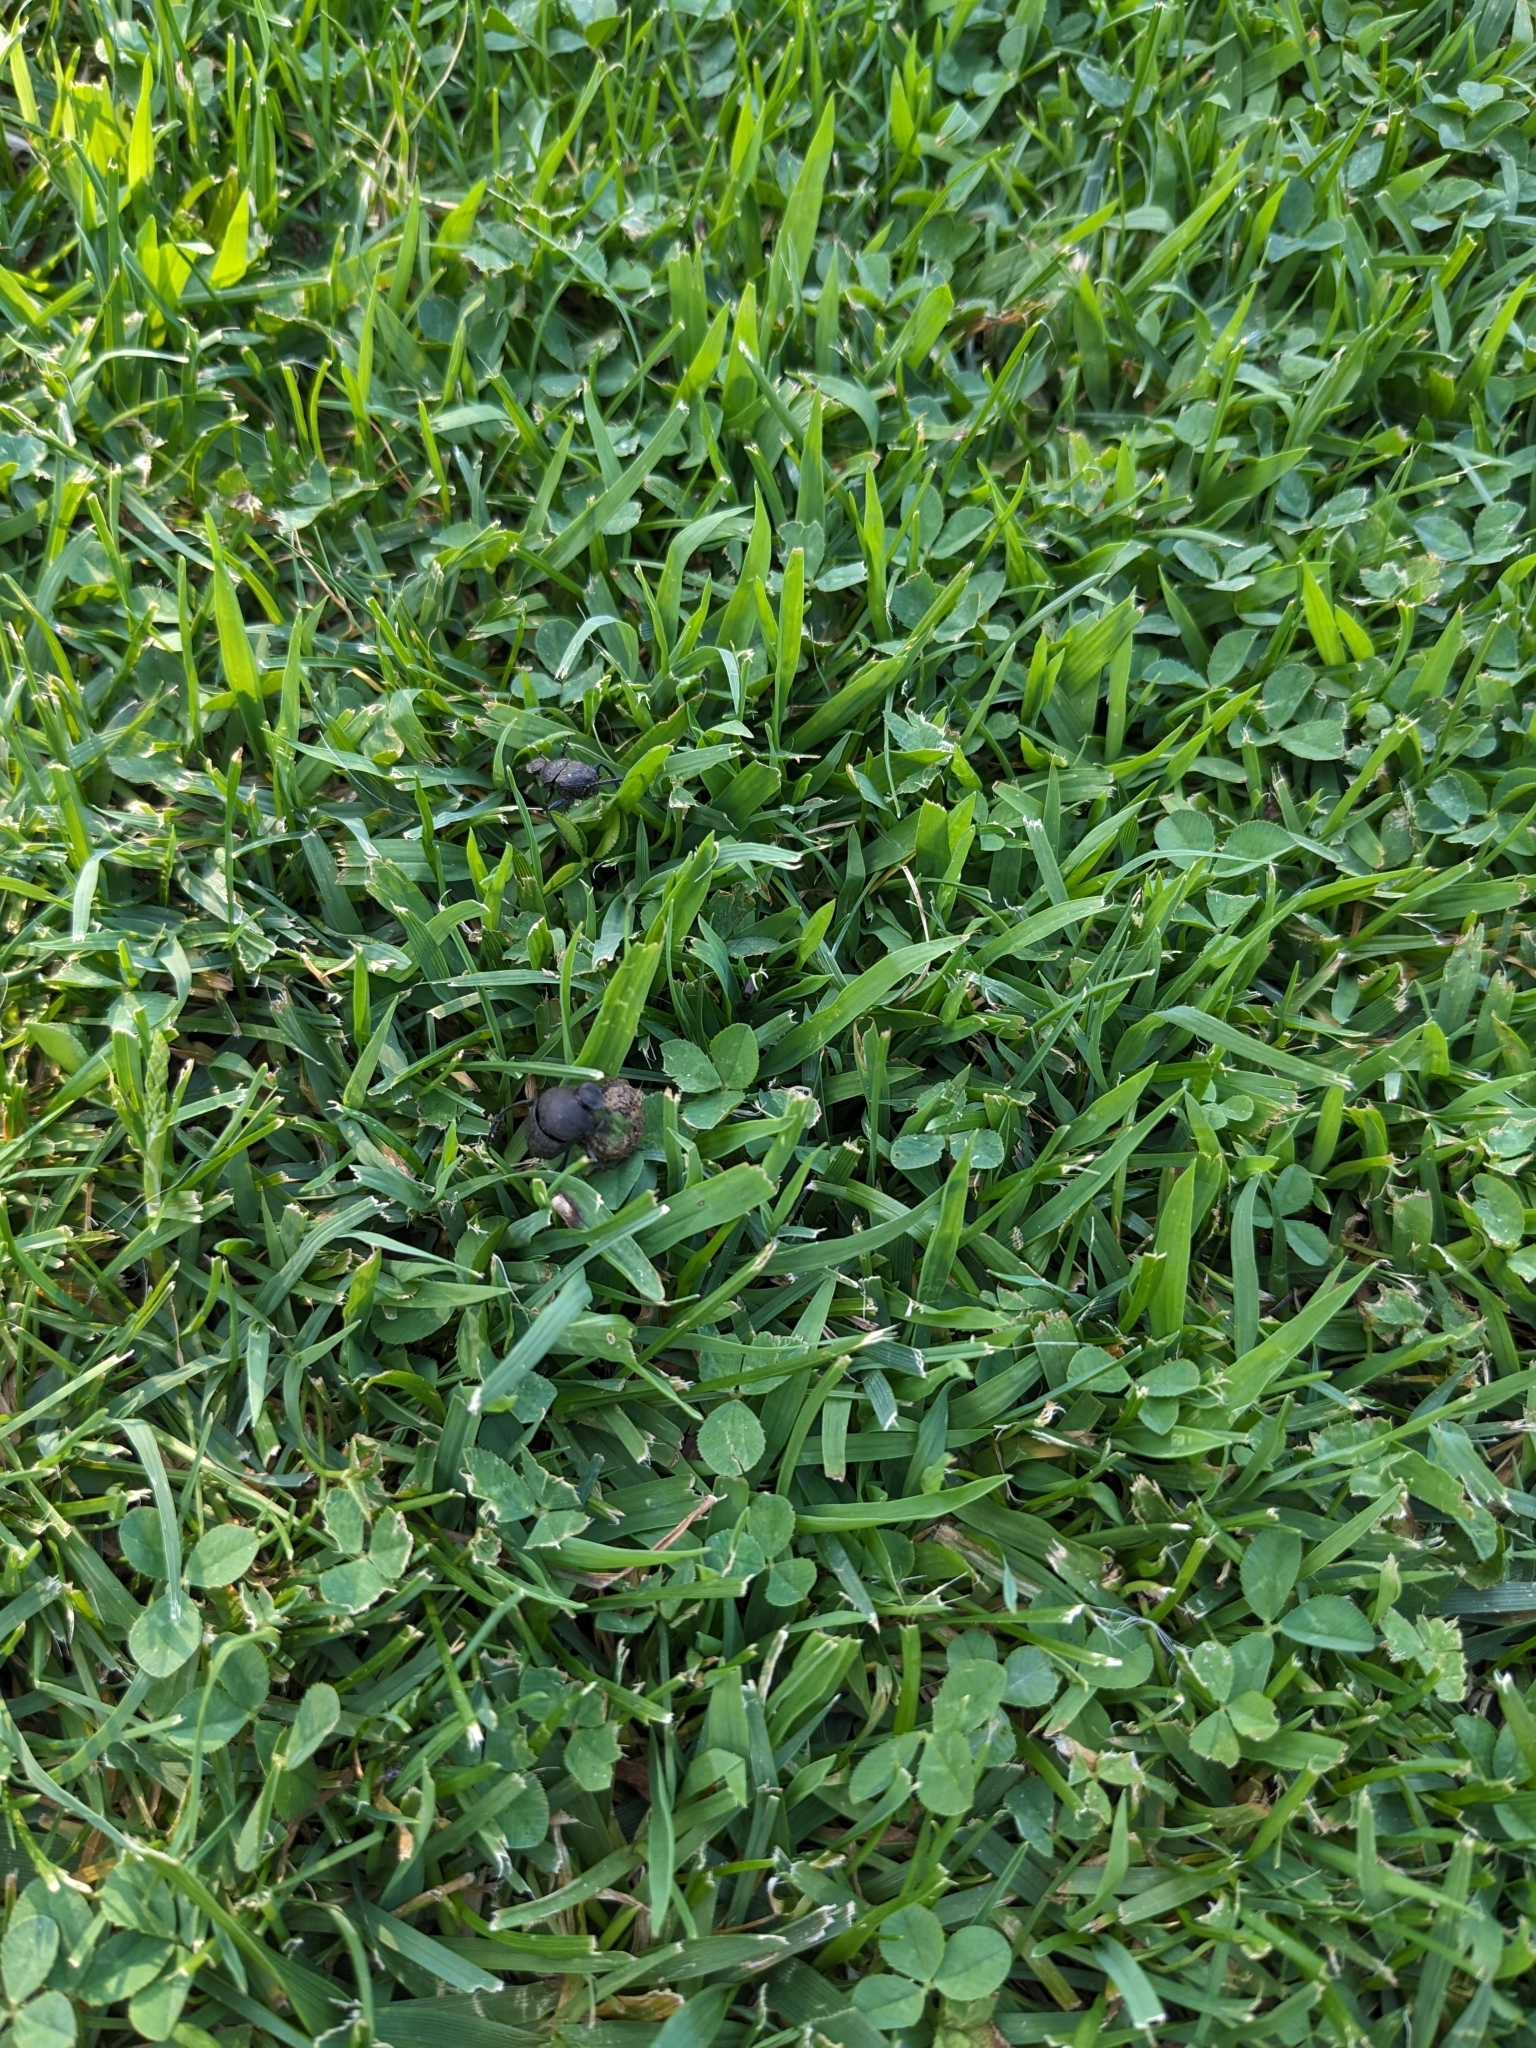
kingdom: Animalia
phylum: Arthropoda
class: Insecta
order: Coleoptera
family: Scarabaeidae
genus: Sisyphus
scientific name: Sisyphus schaefferi
